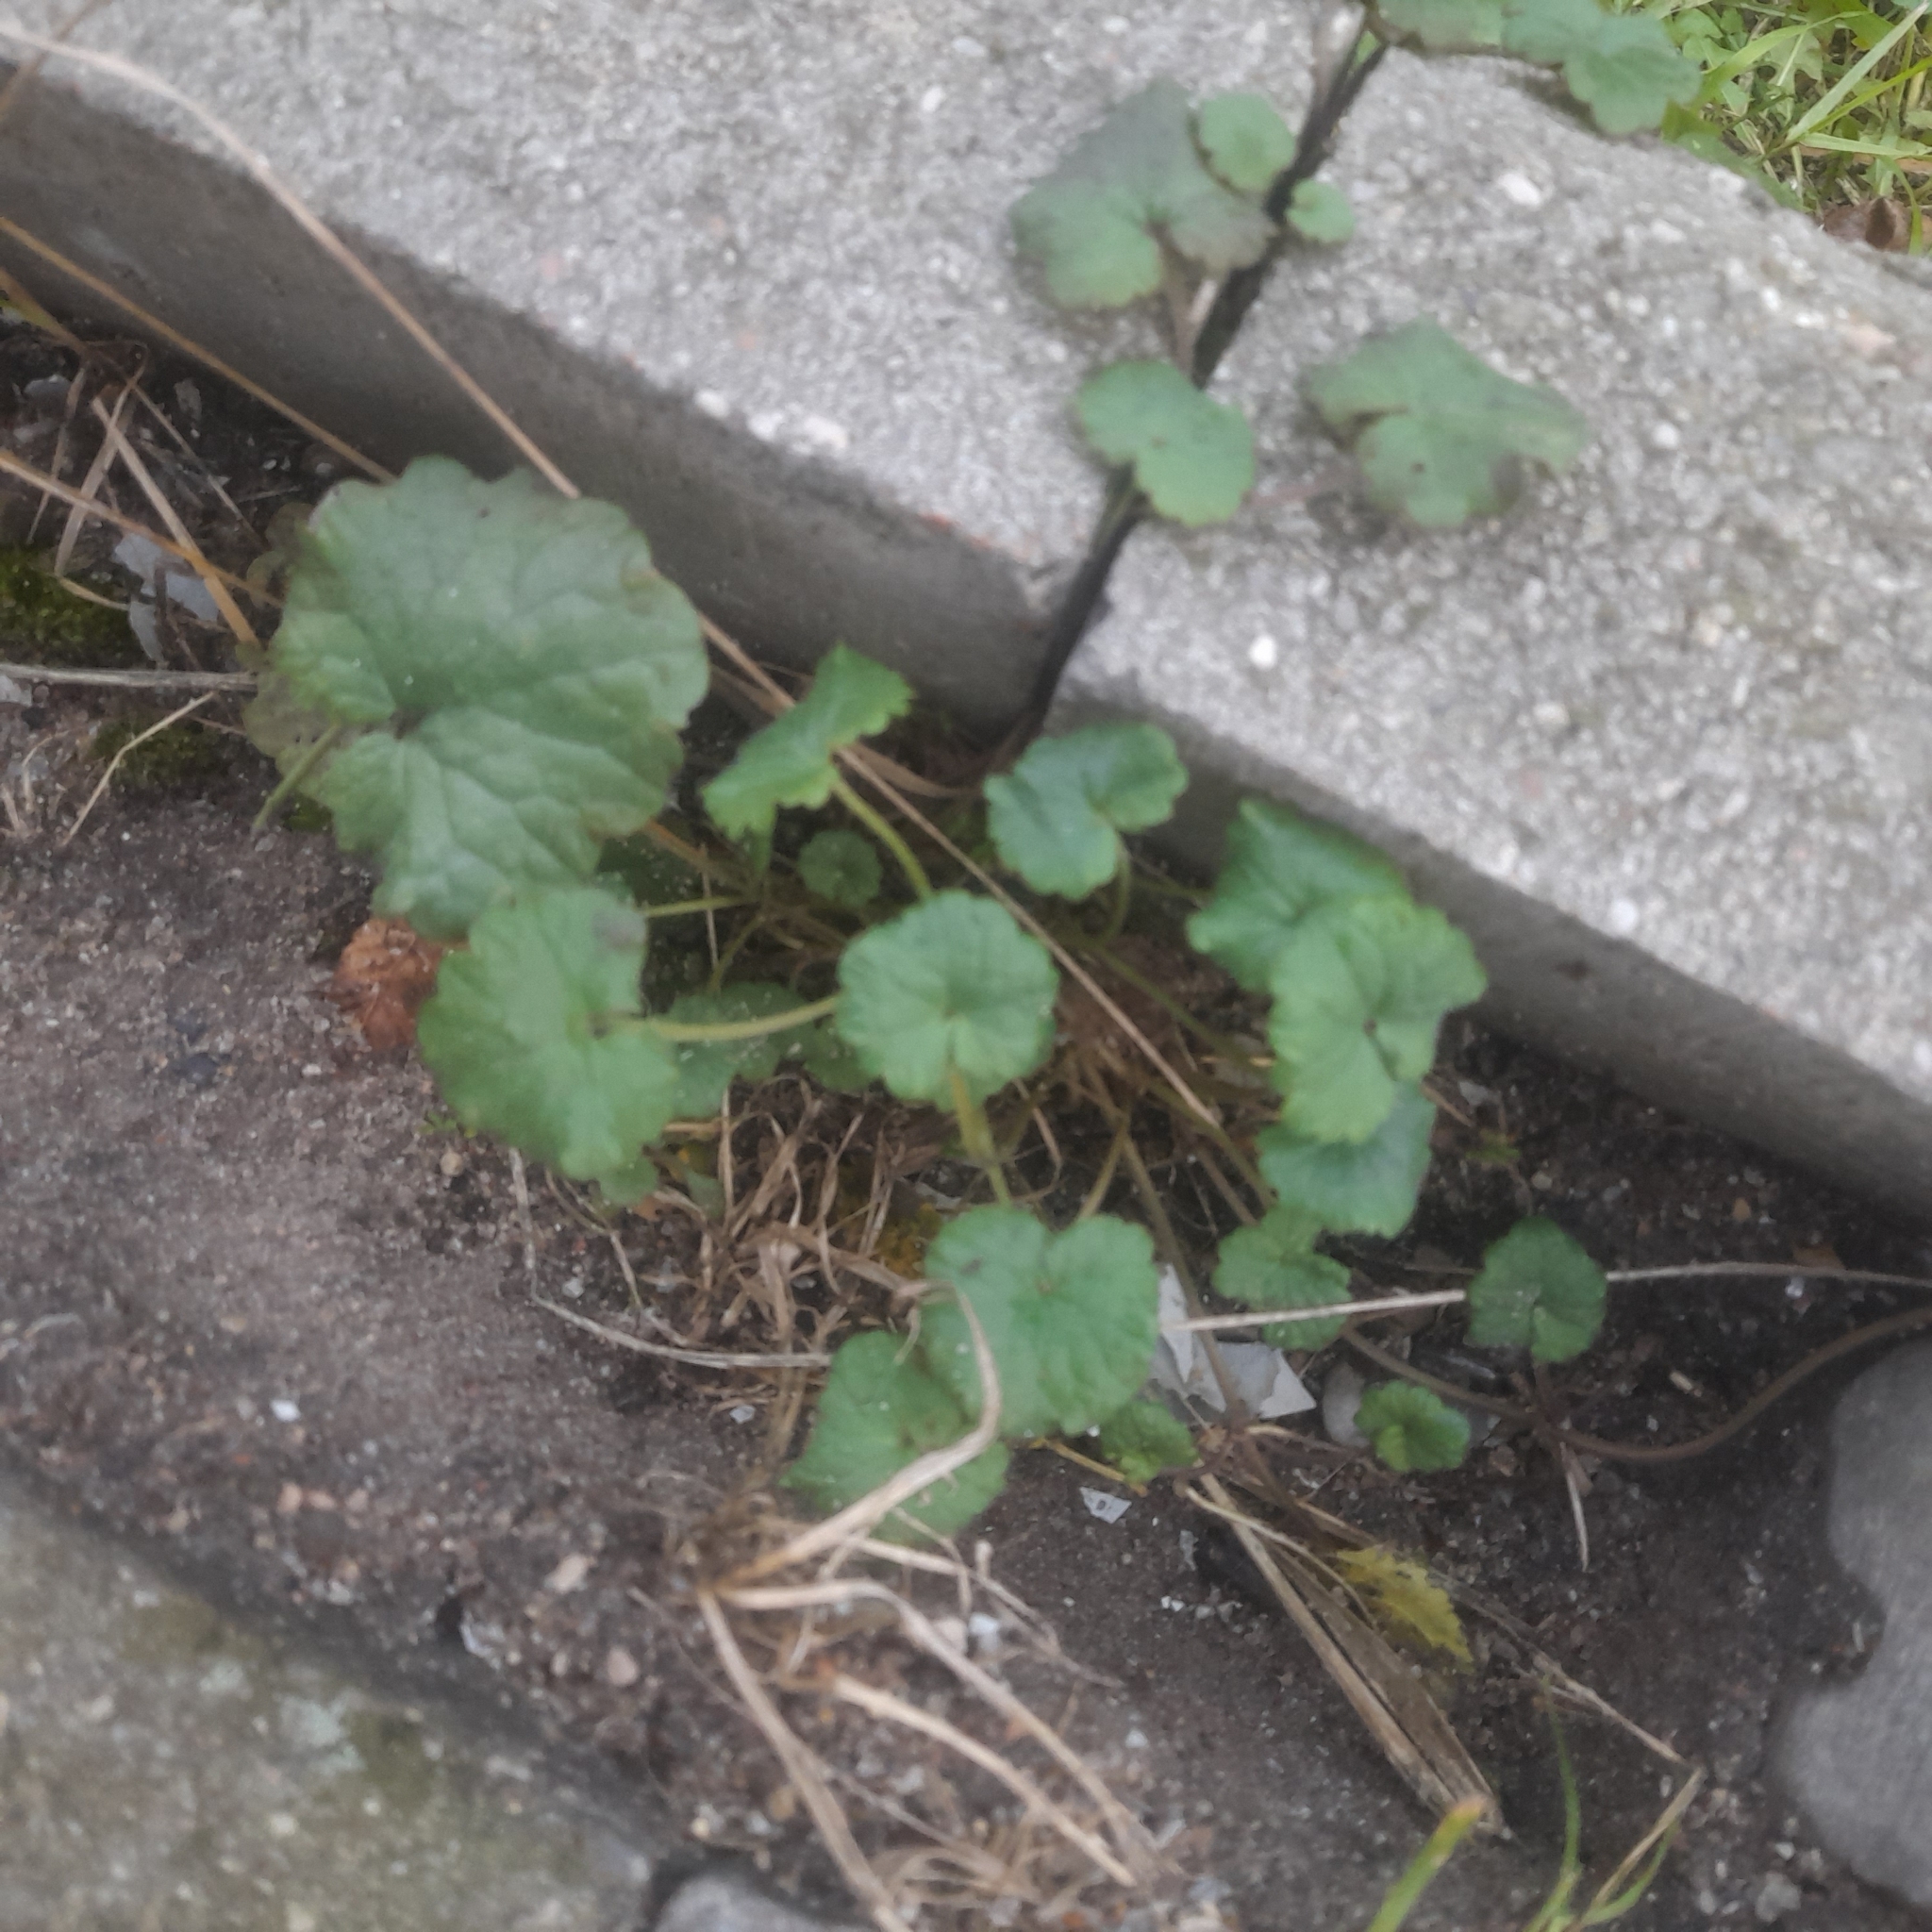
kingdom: Plantae
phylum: Tracheophyta
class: Magnoliopsida
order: Lamiales
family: Lamiaceae
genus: Glechoma
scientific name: Glechoma hederacea
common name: Ground ivy
